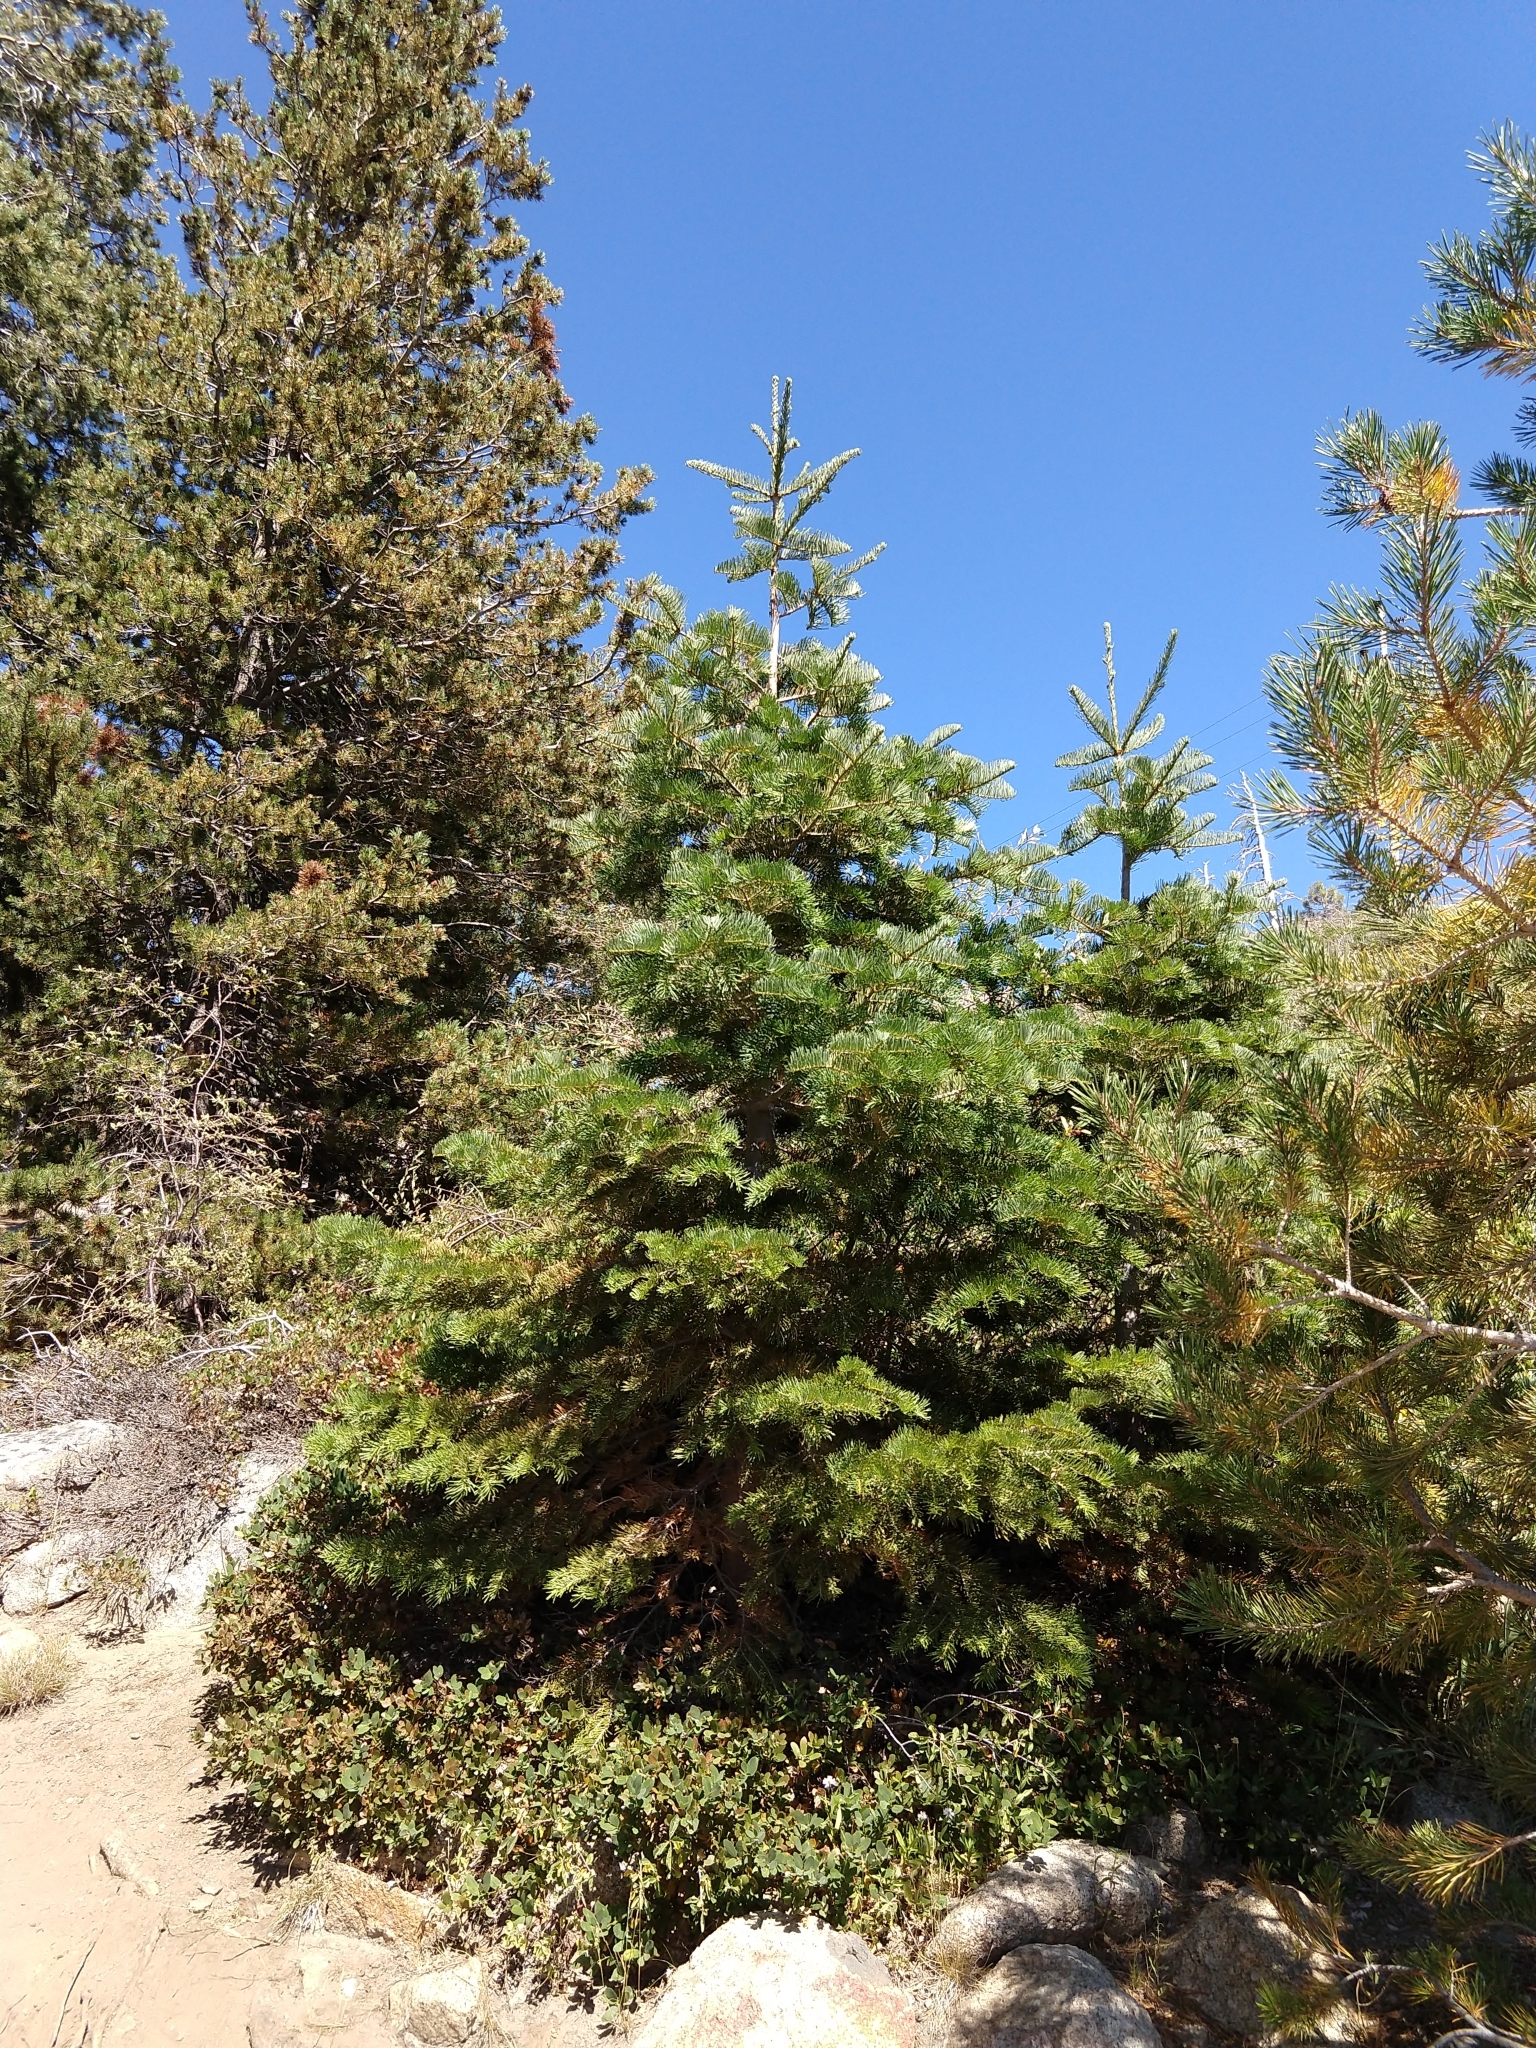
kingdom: Plantae
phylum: Tracheophyta
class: Pinopsida
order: Pinales
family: Pinaceae
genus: Abies
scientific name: Abies concolor
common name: Colorado fir
